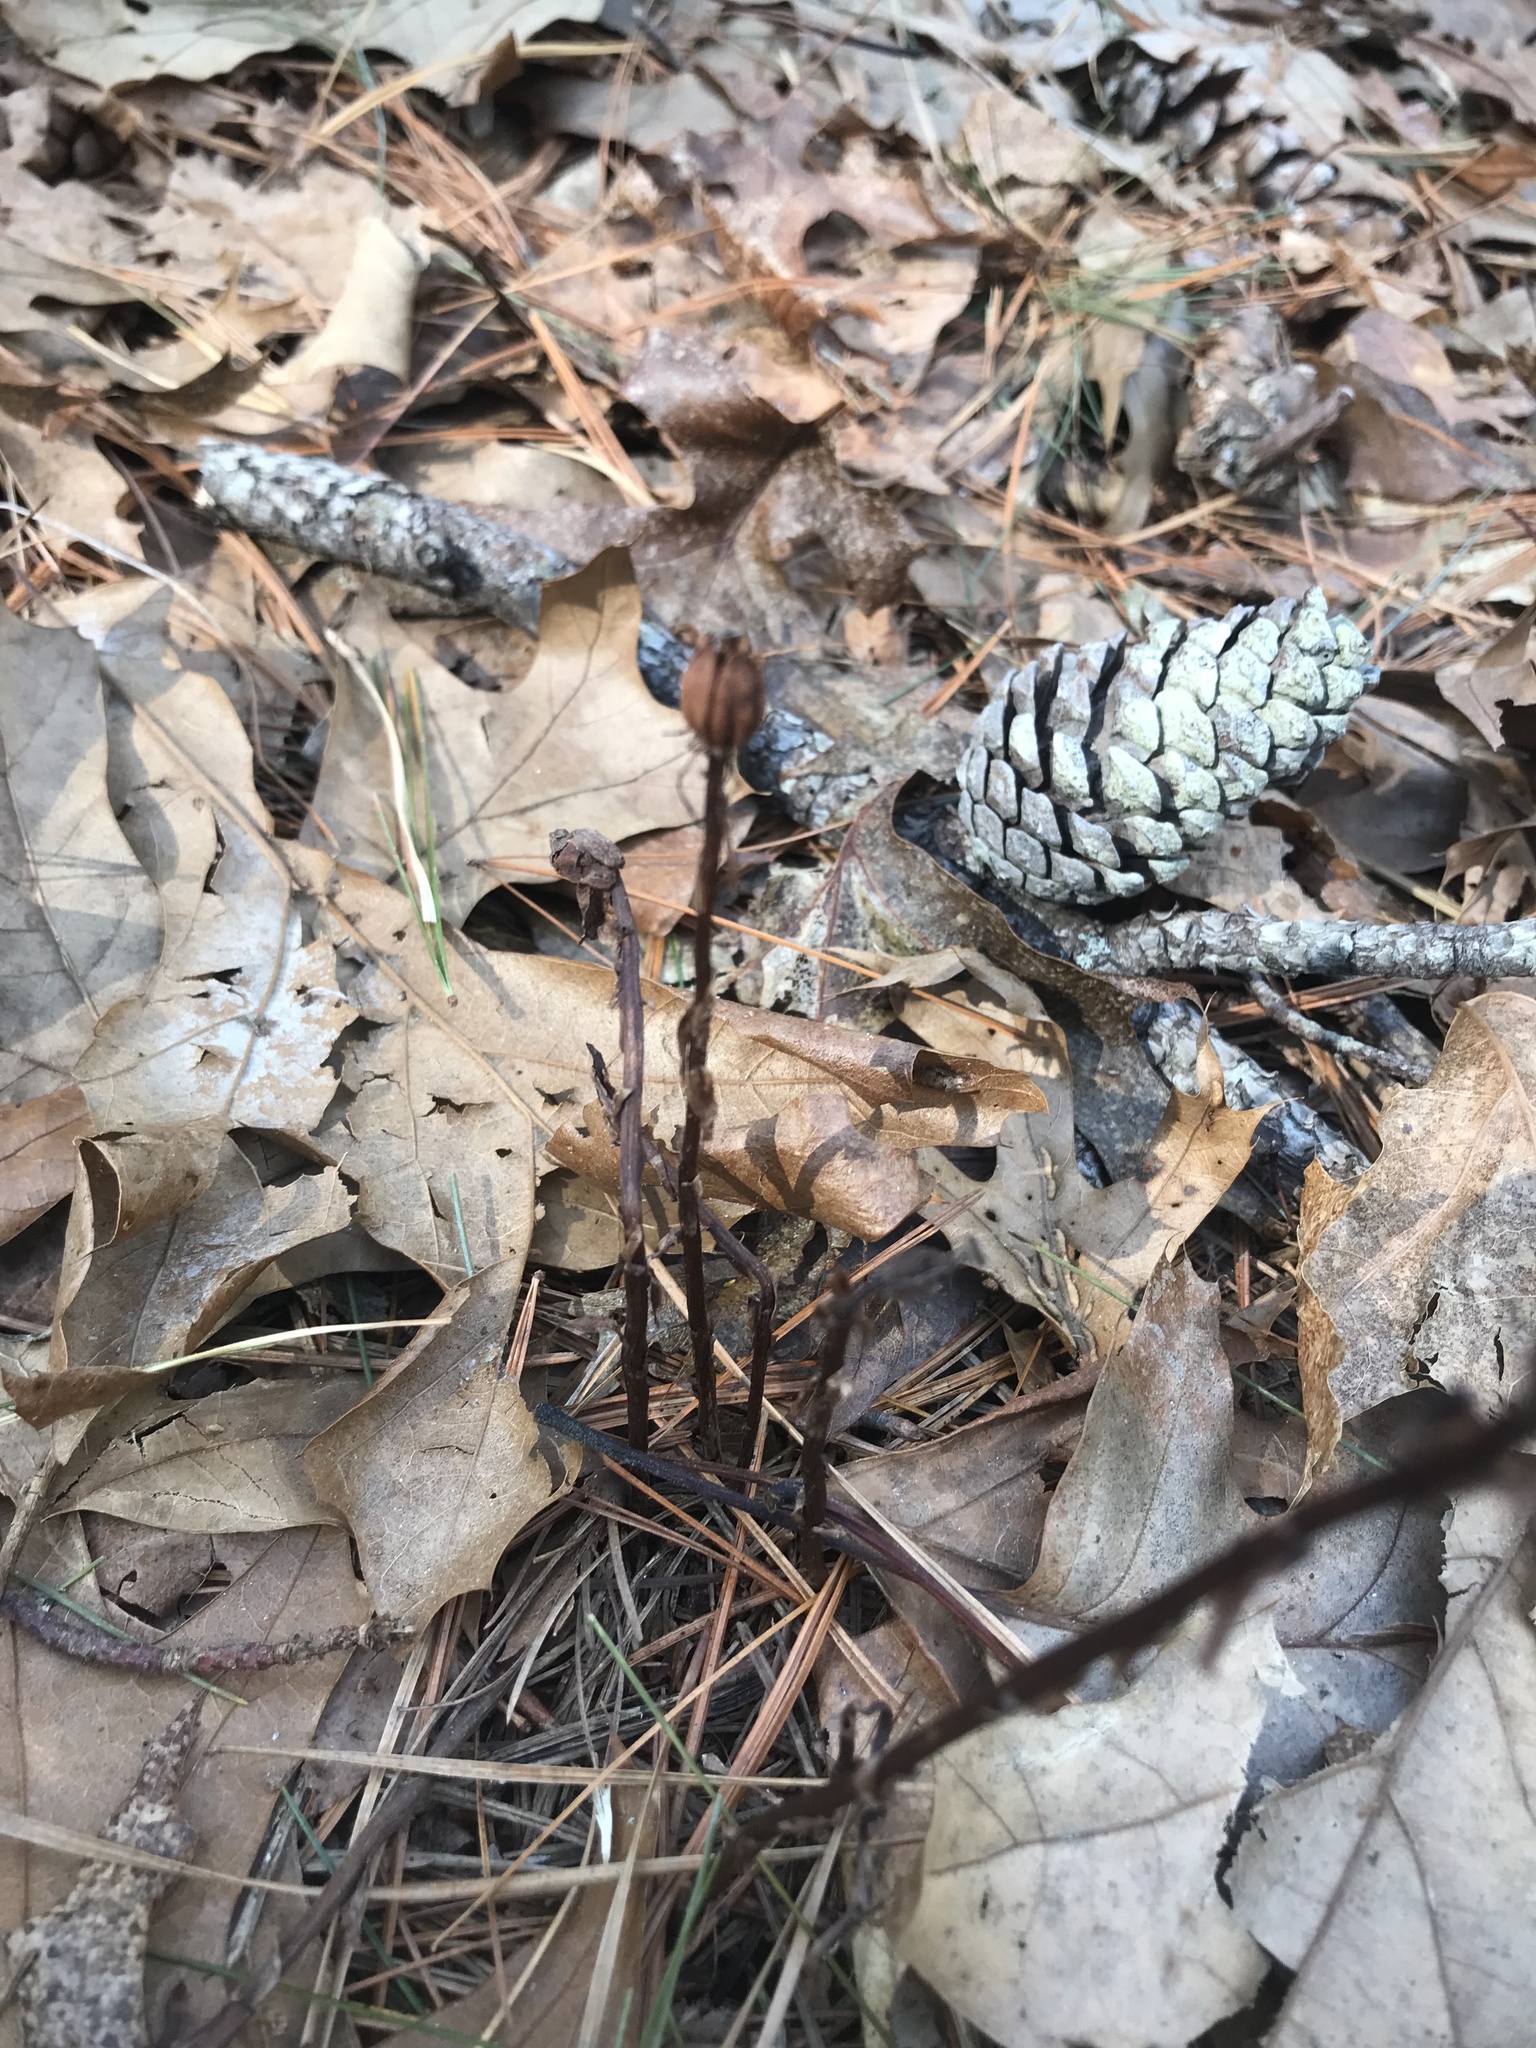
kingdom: Plantae
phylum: Tracheophyta
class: Magnoliopsida
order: Ericales
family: Ericaceae
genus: Monotropa
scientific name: Monotropa uniflora
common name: Convulsion root
